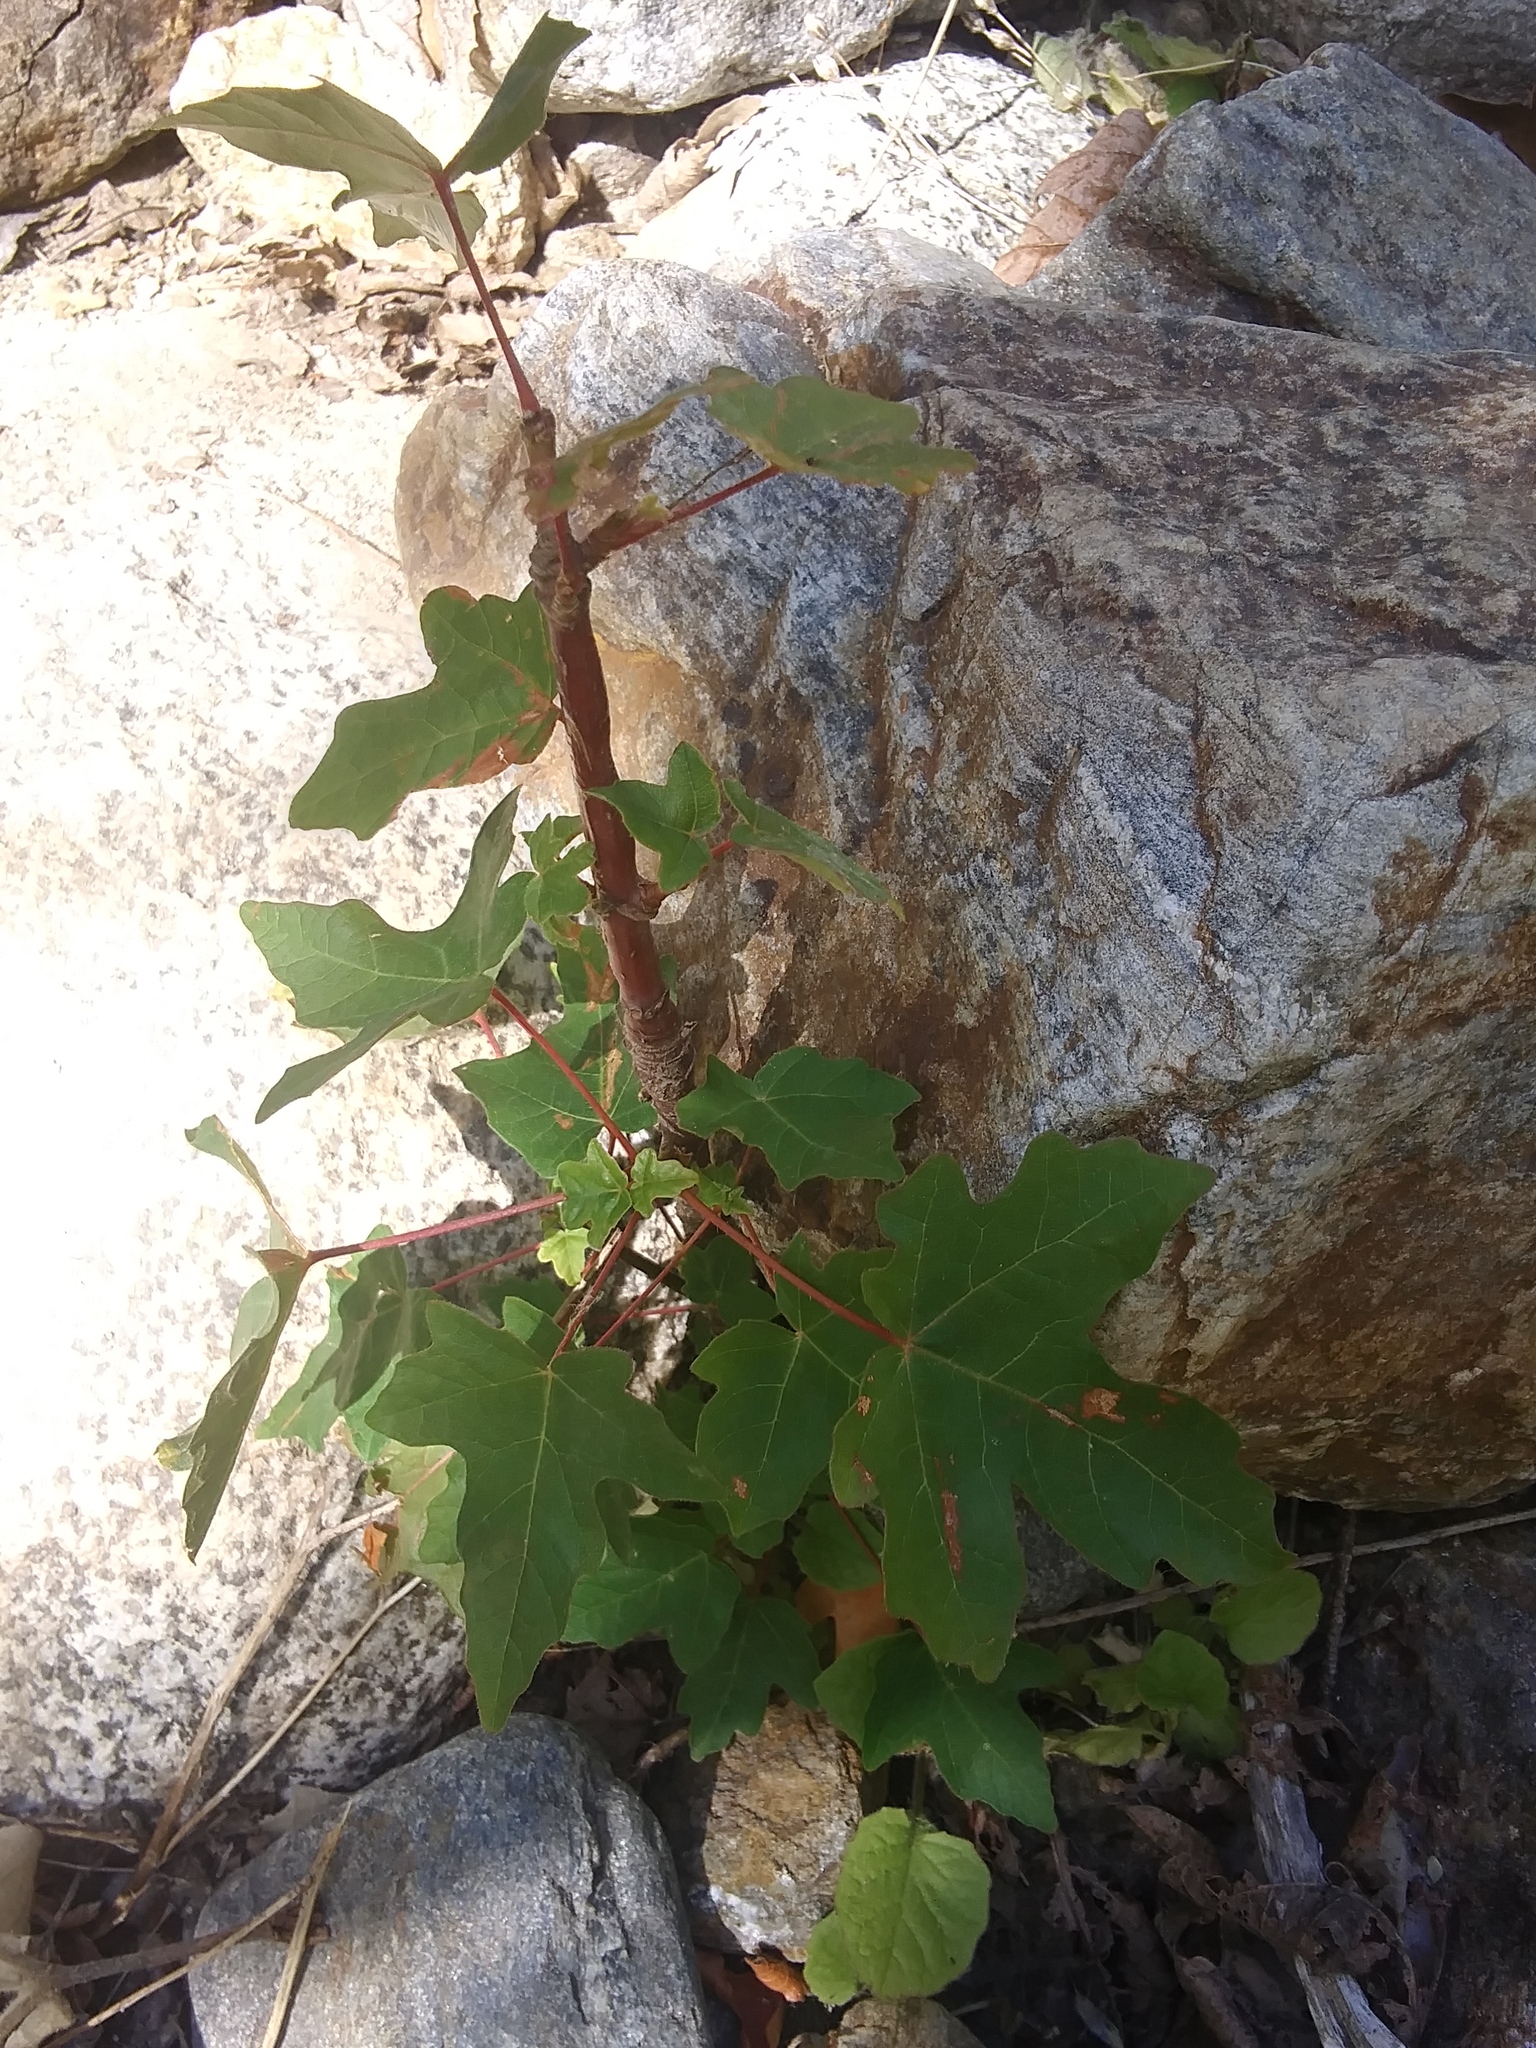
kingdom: Plantae
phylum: Tracheophyta
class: Magnoliopsida
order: Sapindales
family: Sapindaceae
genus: Acer
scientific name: Acer macrophyllum
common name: Oregon maple
